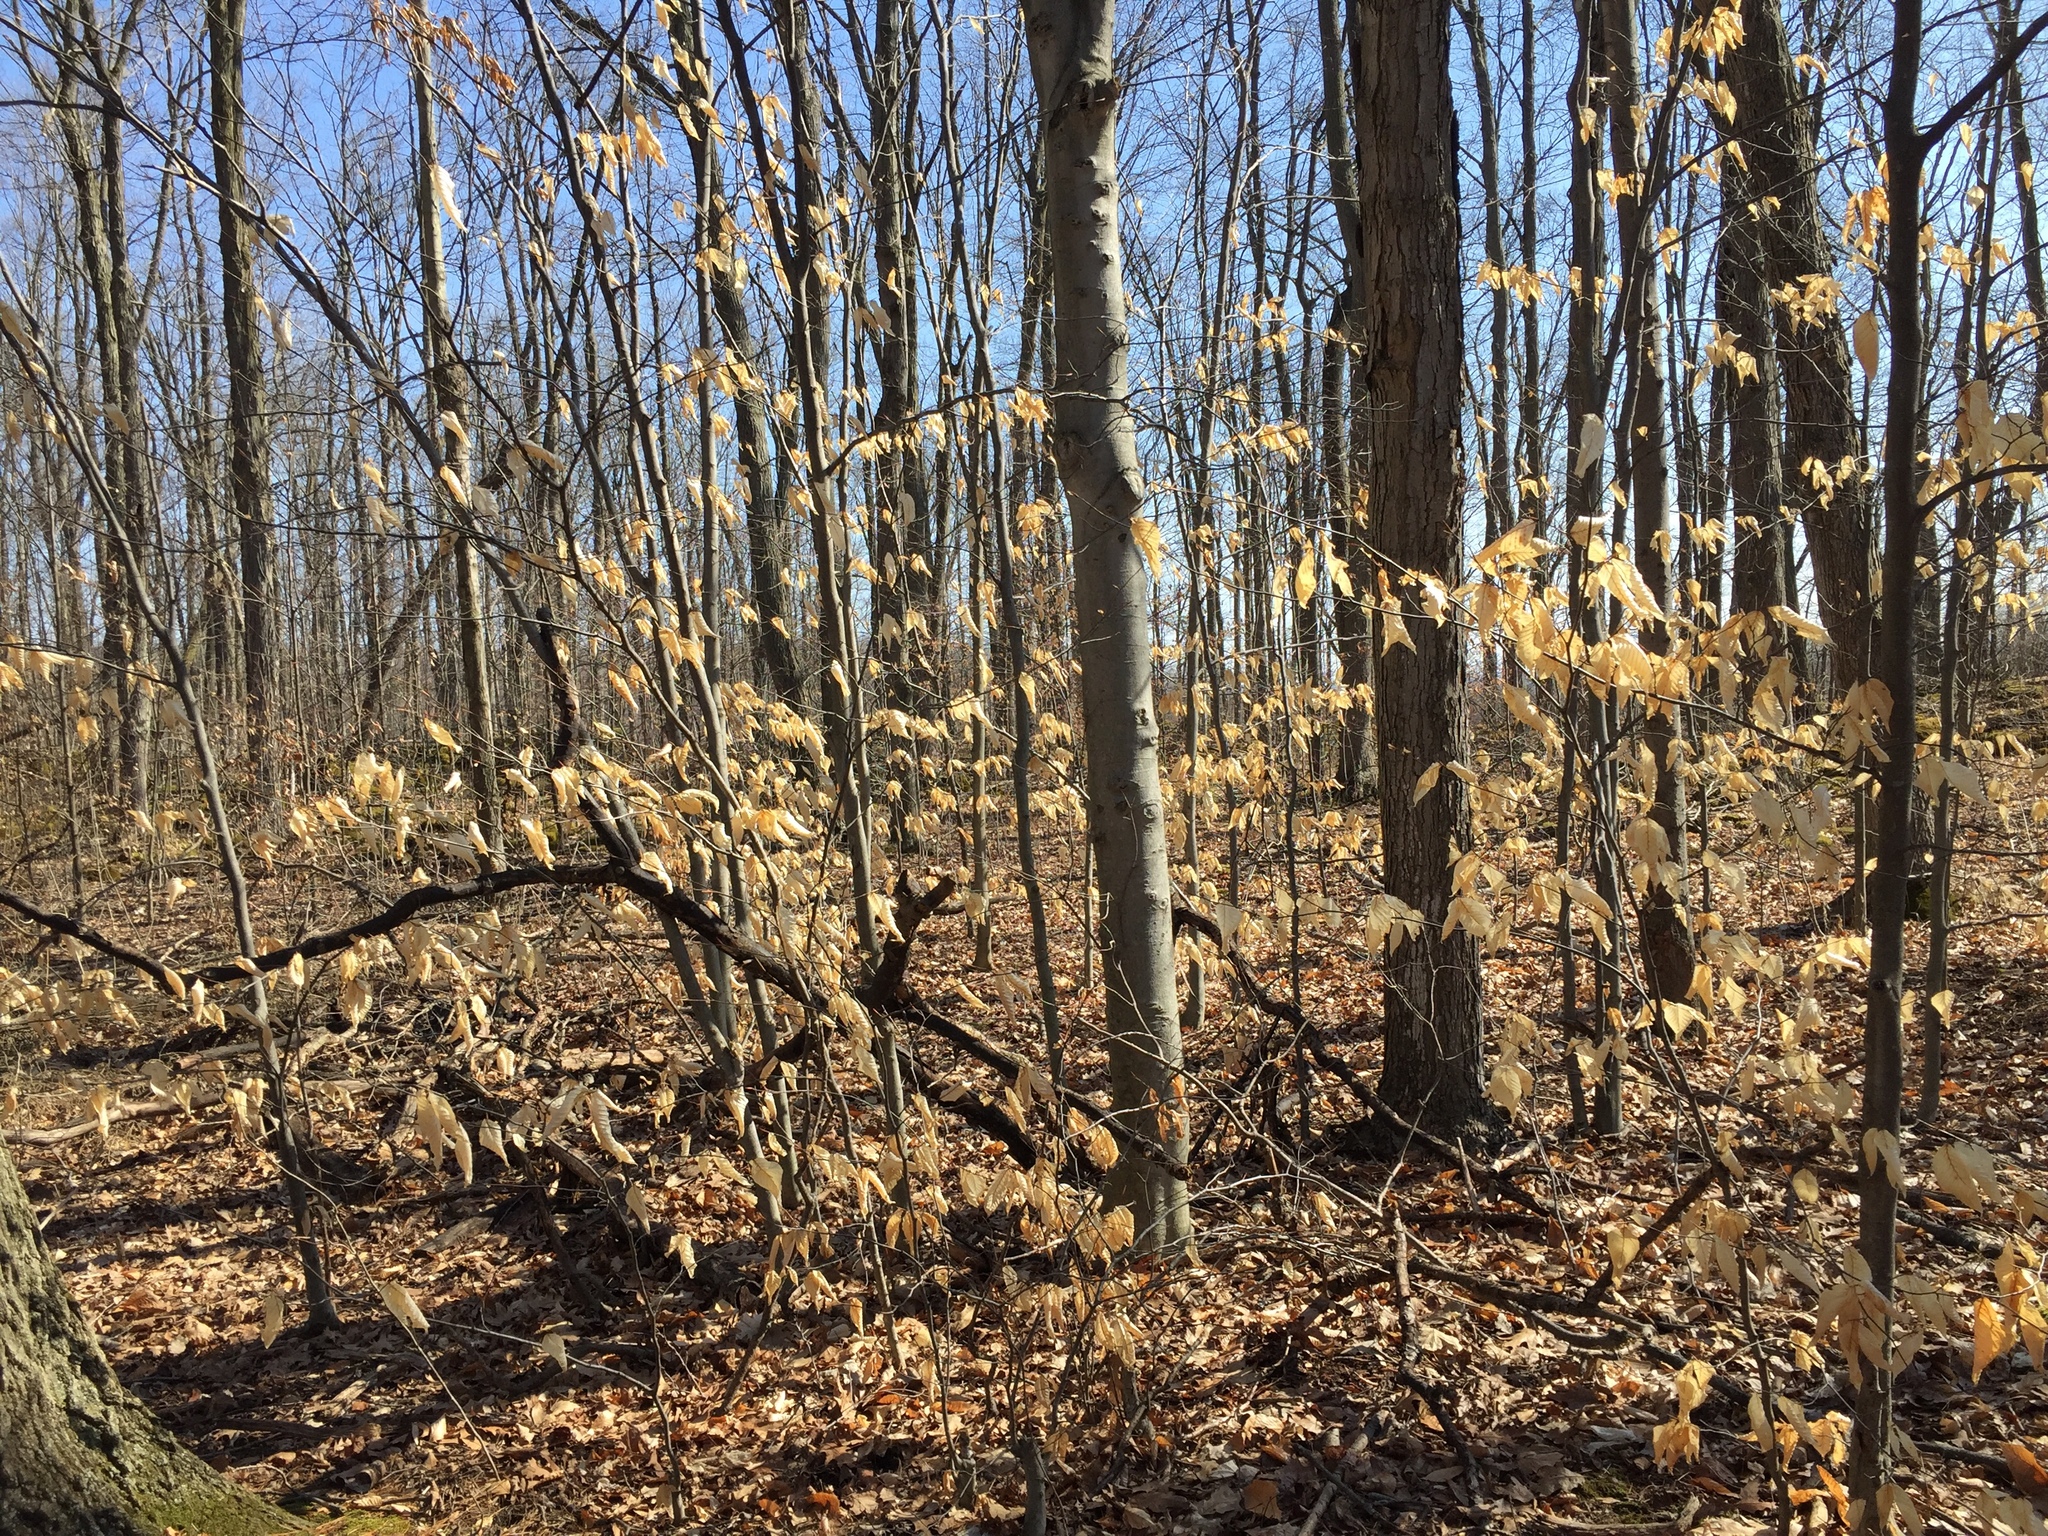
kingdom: Plantae
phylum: Tracheophyta
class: Magnoliopsida
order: Fagales
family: Fagaceae
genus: Fagus
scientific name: Fagus grandifolia
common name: American beech
